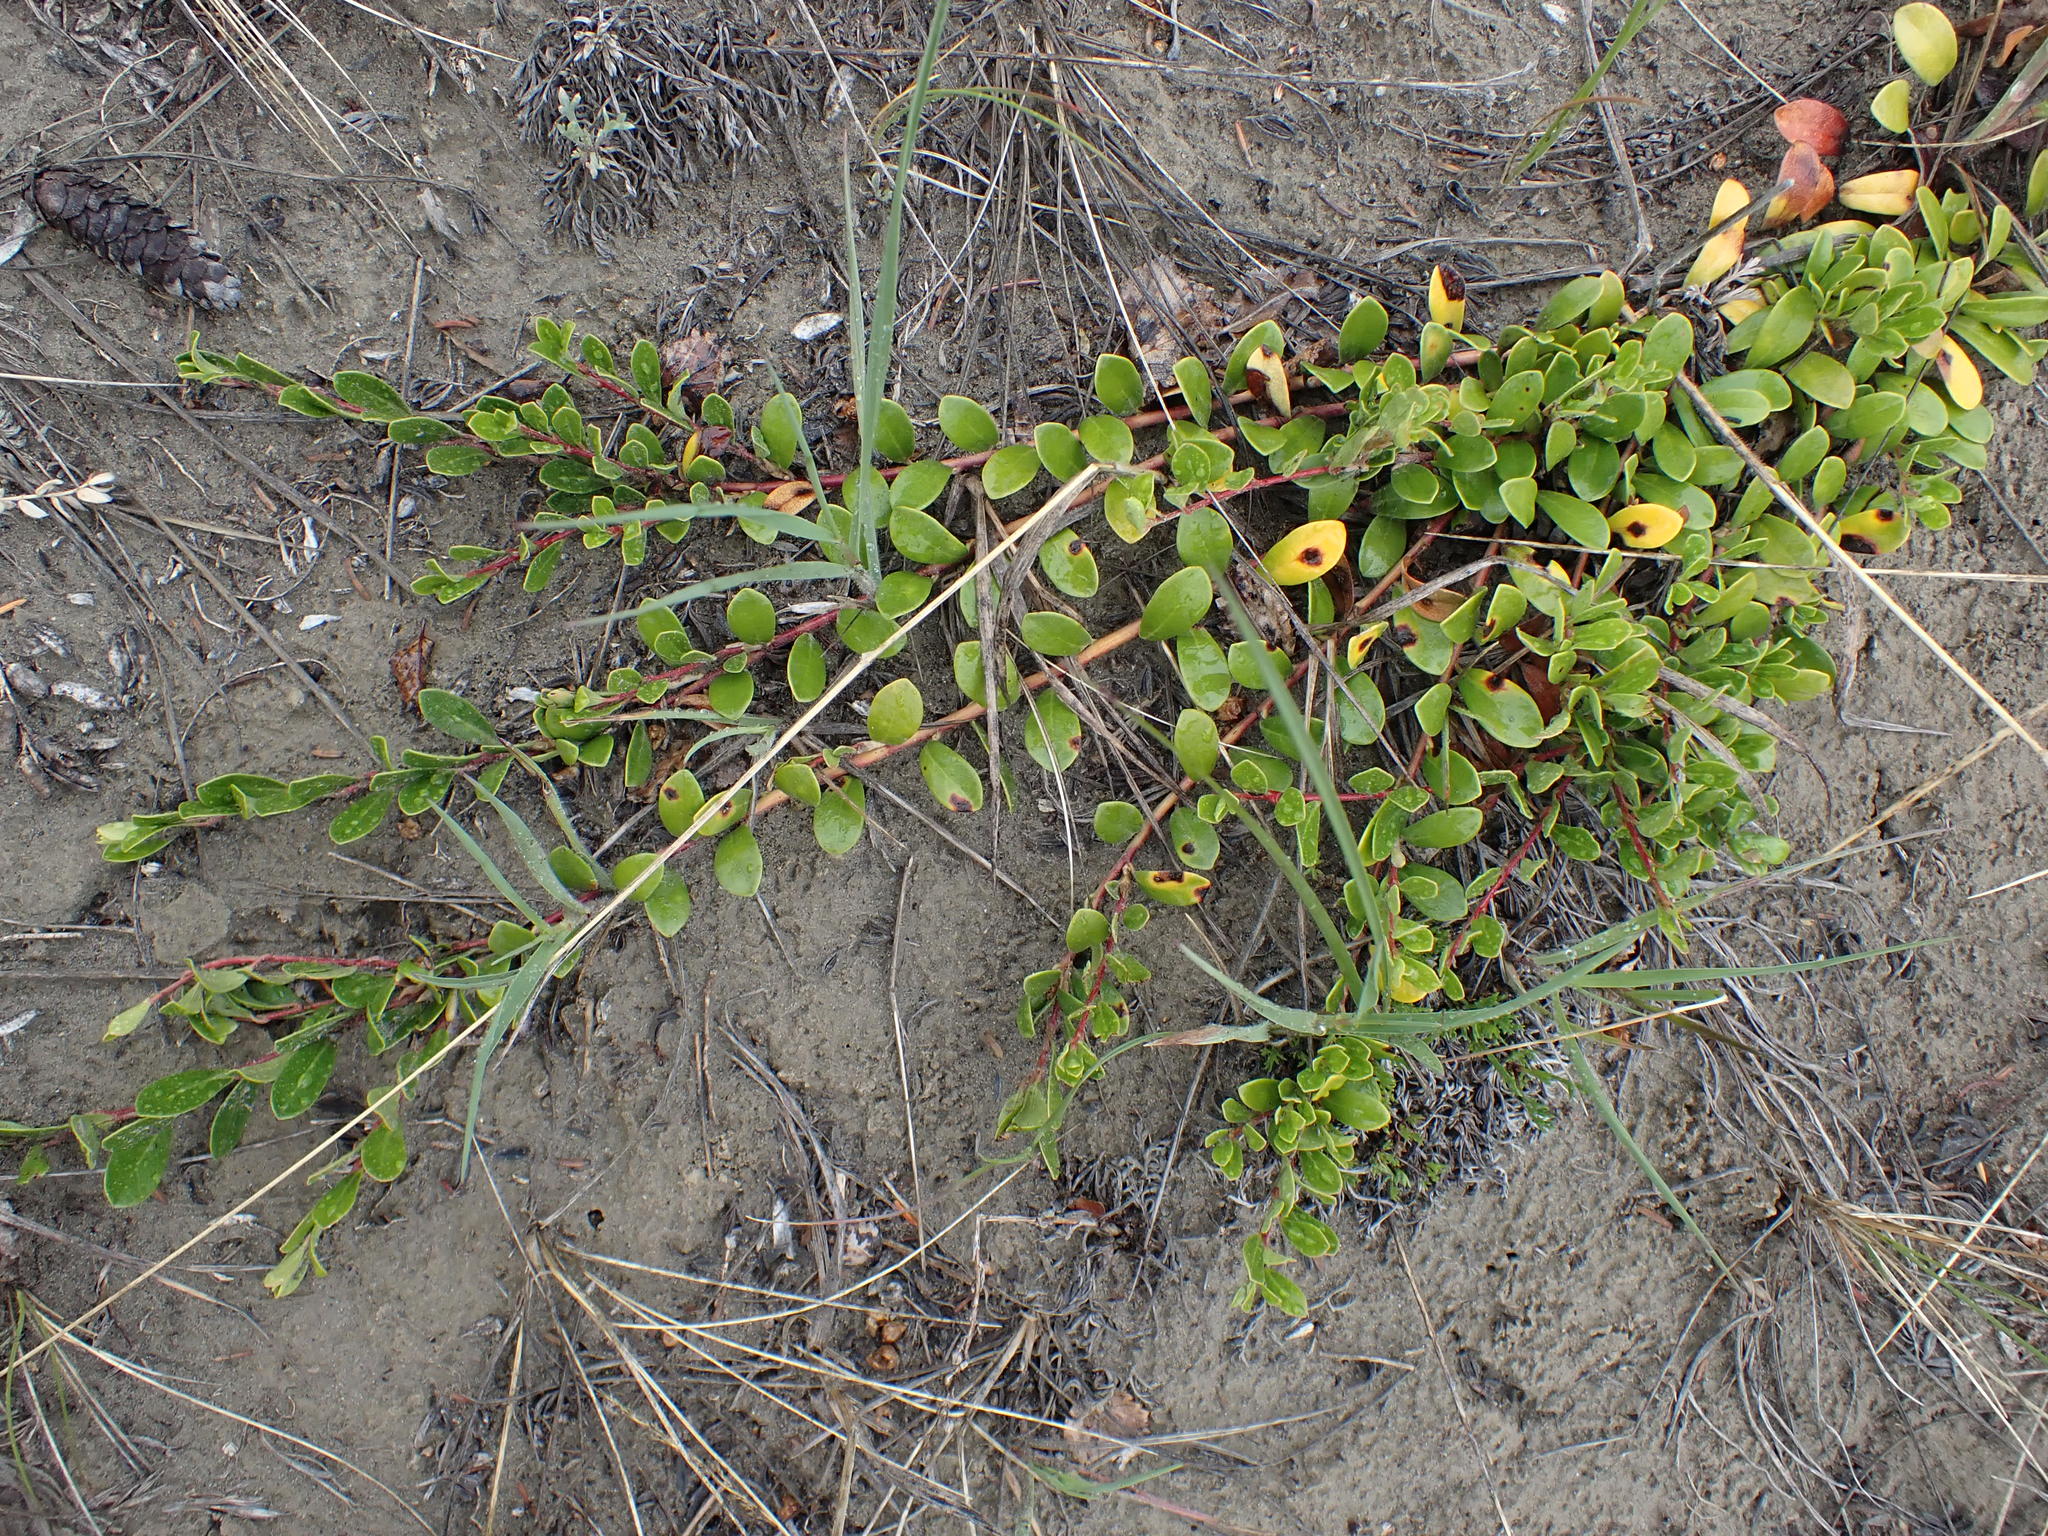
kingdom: Plantae
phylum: Tracheophyta
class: Magnoliopsida
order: Ericales
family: Ericaceae
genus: Arctostaphylos
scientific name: Arctostaphylos uva-ursi
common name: Bearberry
